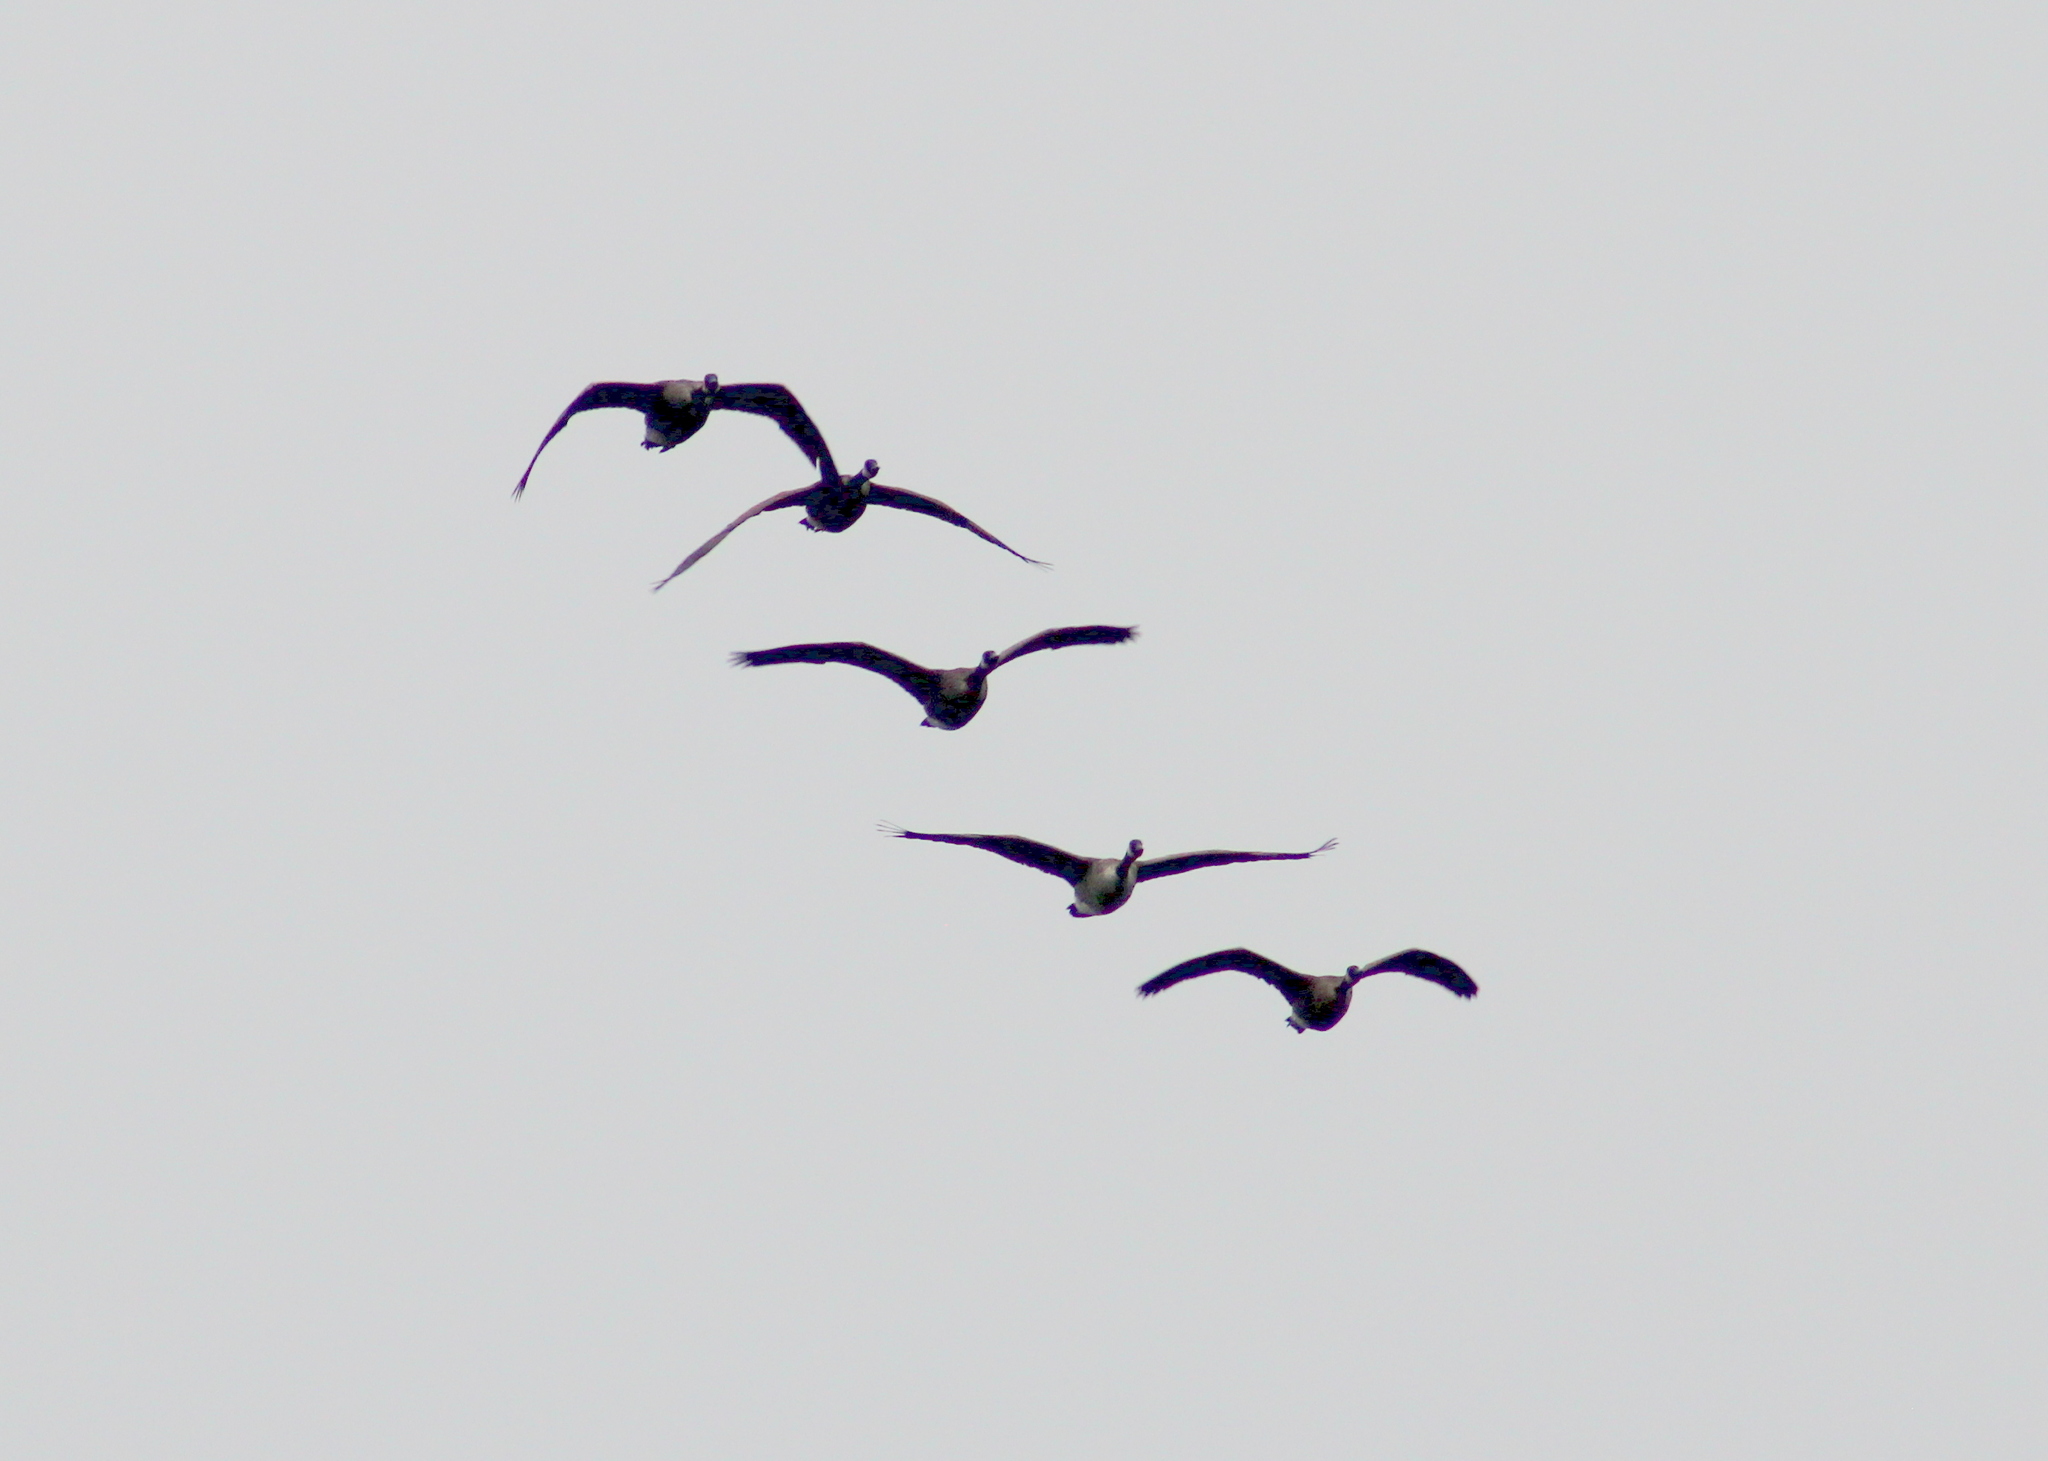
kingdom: Animalia
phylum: Chordata
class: Aves
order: Anseriformes
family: Anatidae
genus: Branta
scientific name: Branta canadensis
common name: Canada goose
